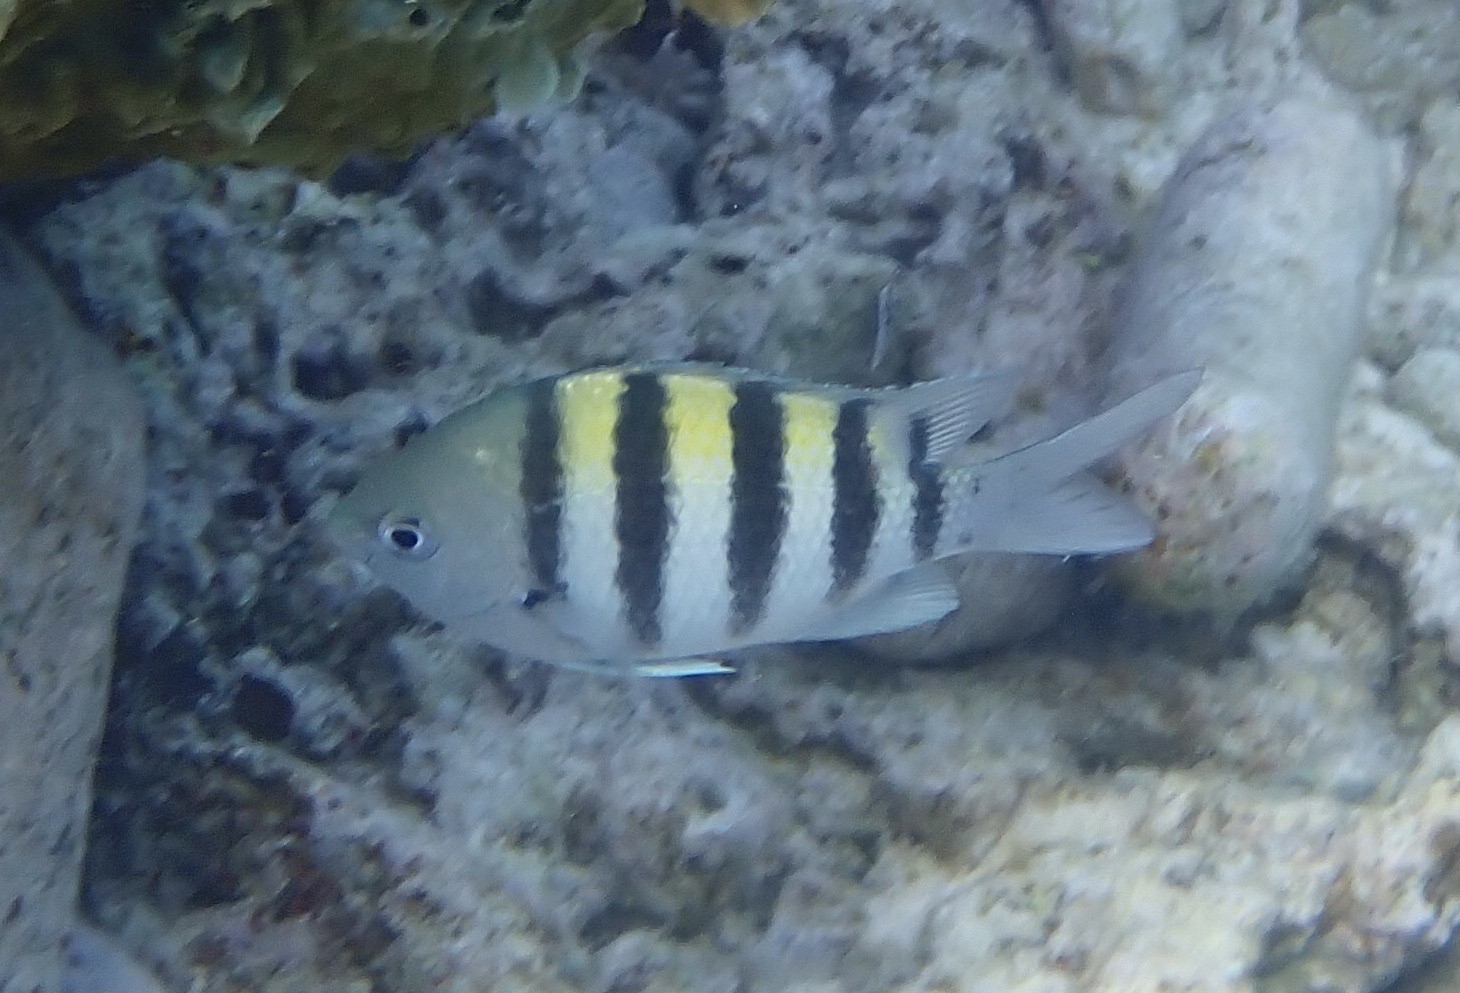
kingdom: Animalia
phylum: Chordata
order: Perciformes
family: Pomacentridae
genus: Abudefduf
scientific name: Abudefduf saxatilis
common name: Sergeant major
